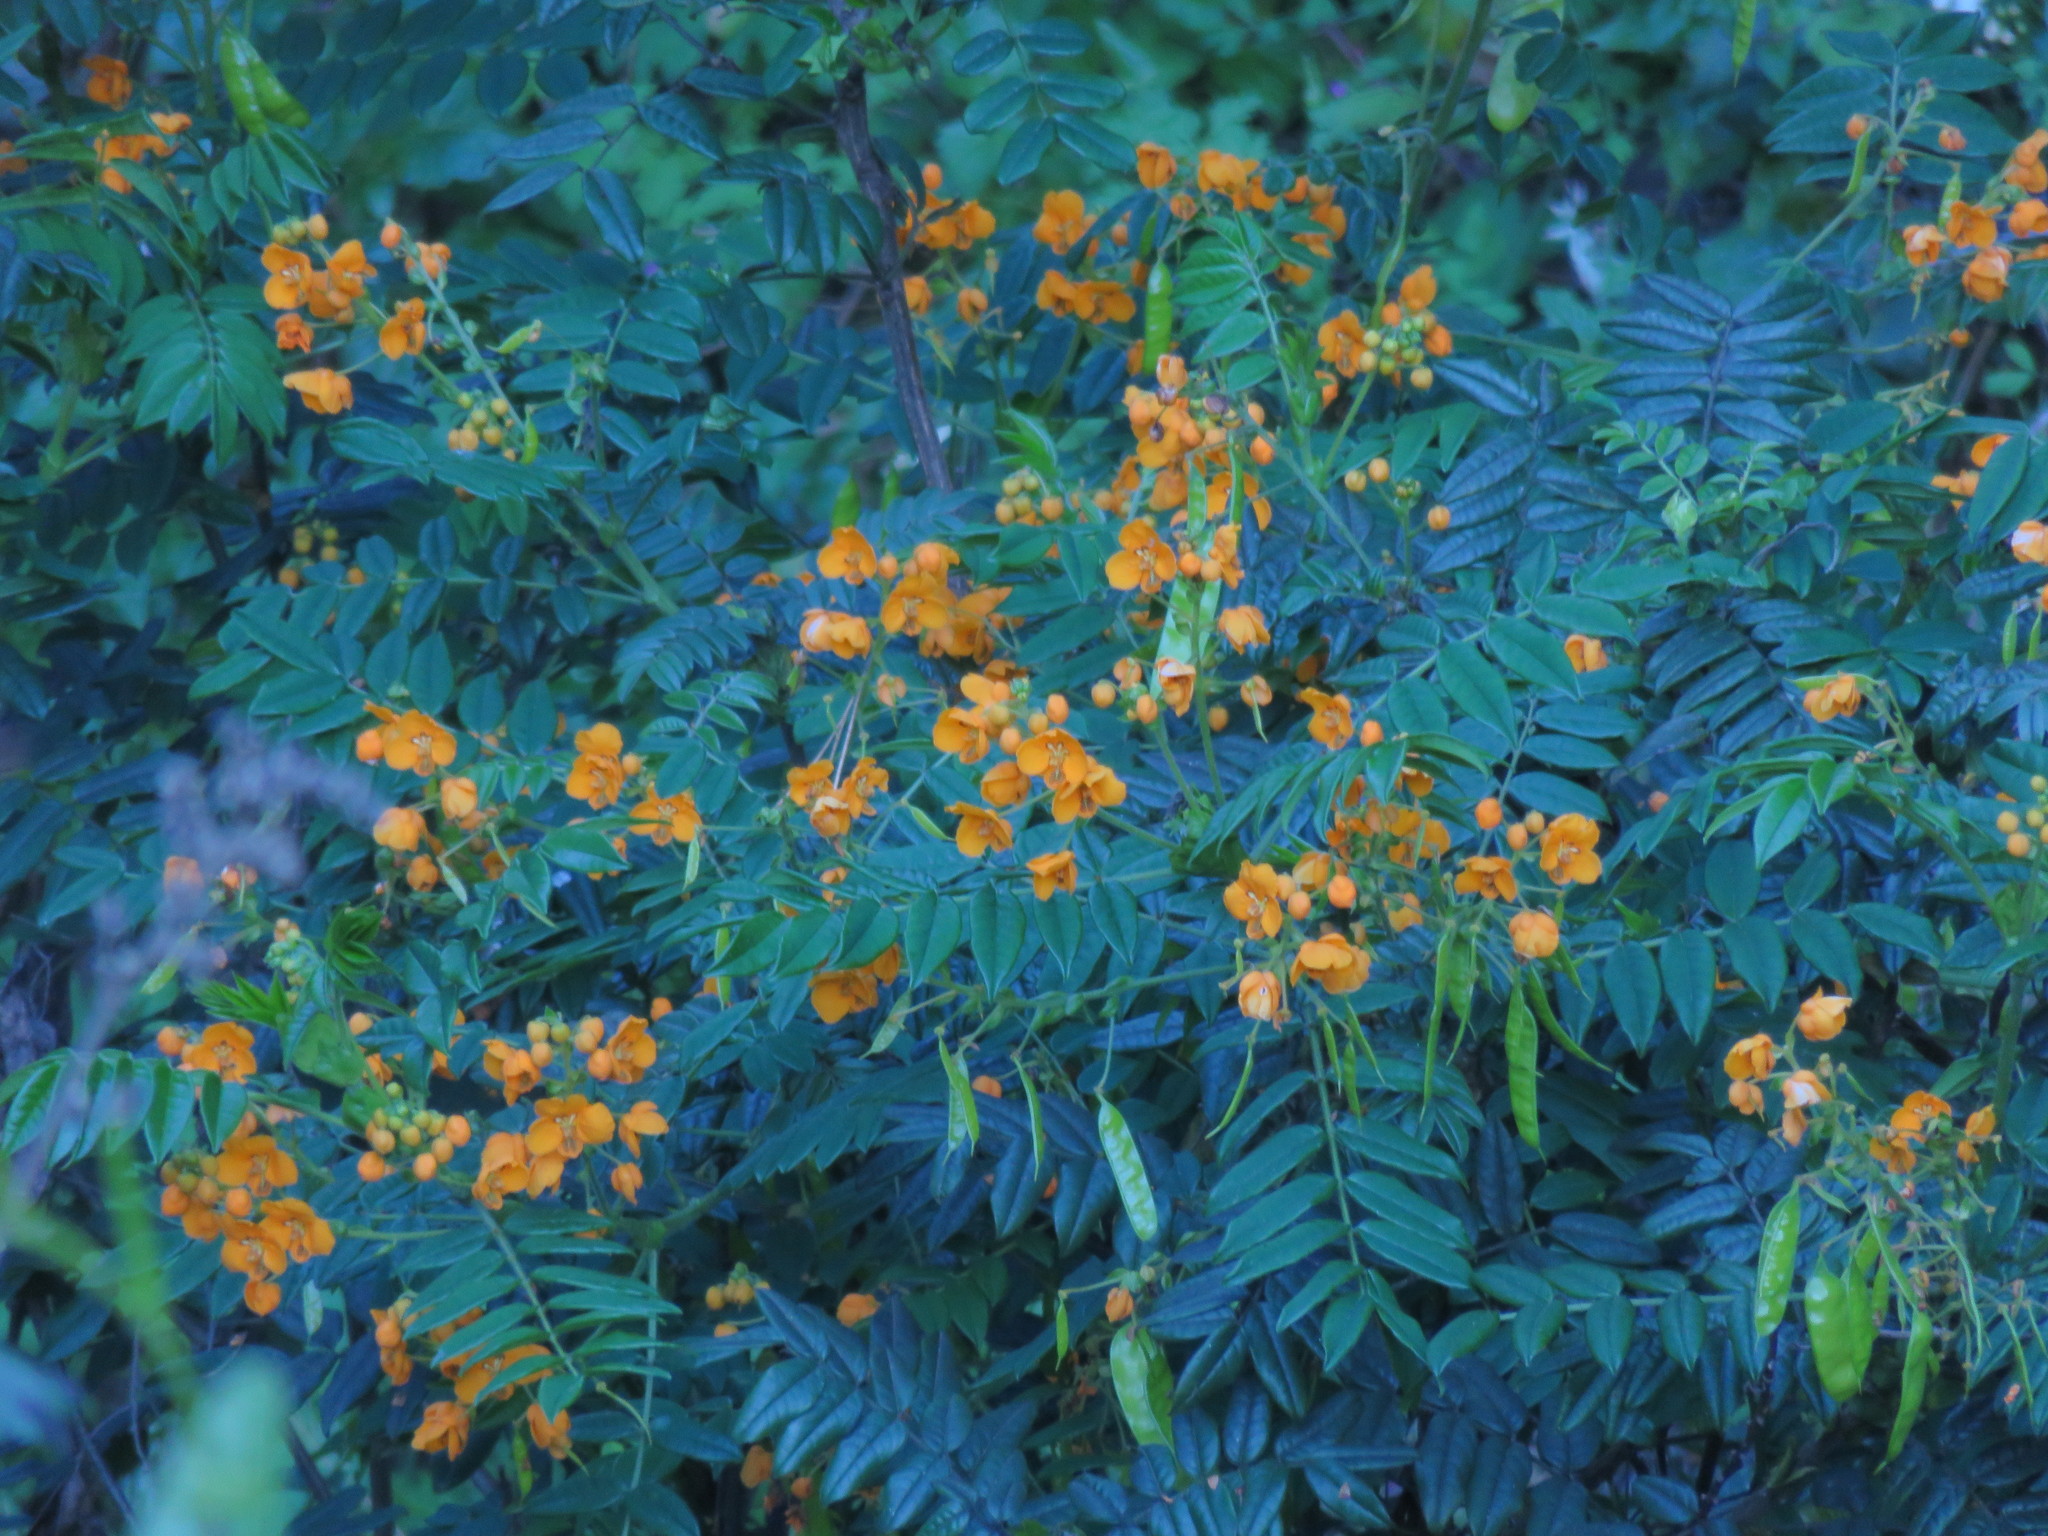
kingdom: Plantae
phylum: Tracheophyta
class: Magnoliopsida
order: Fabales
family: Fabaceae
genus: Senna
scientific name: Senna stipulacea
